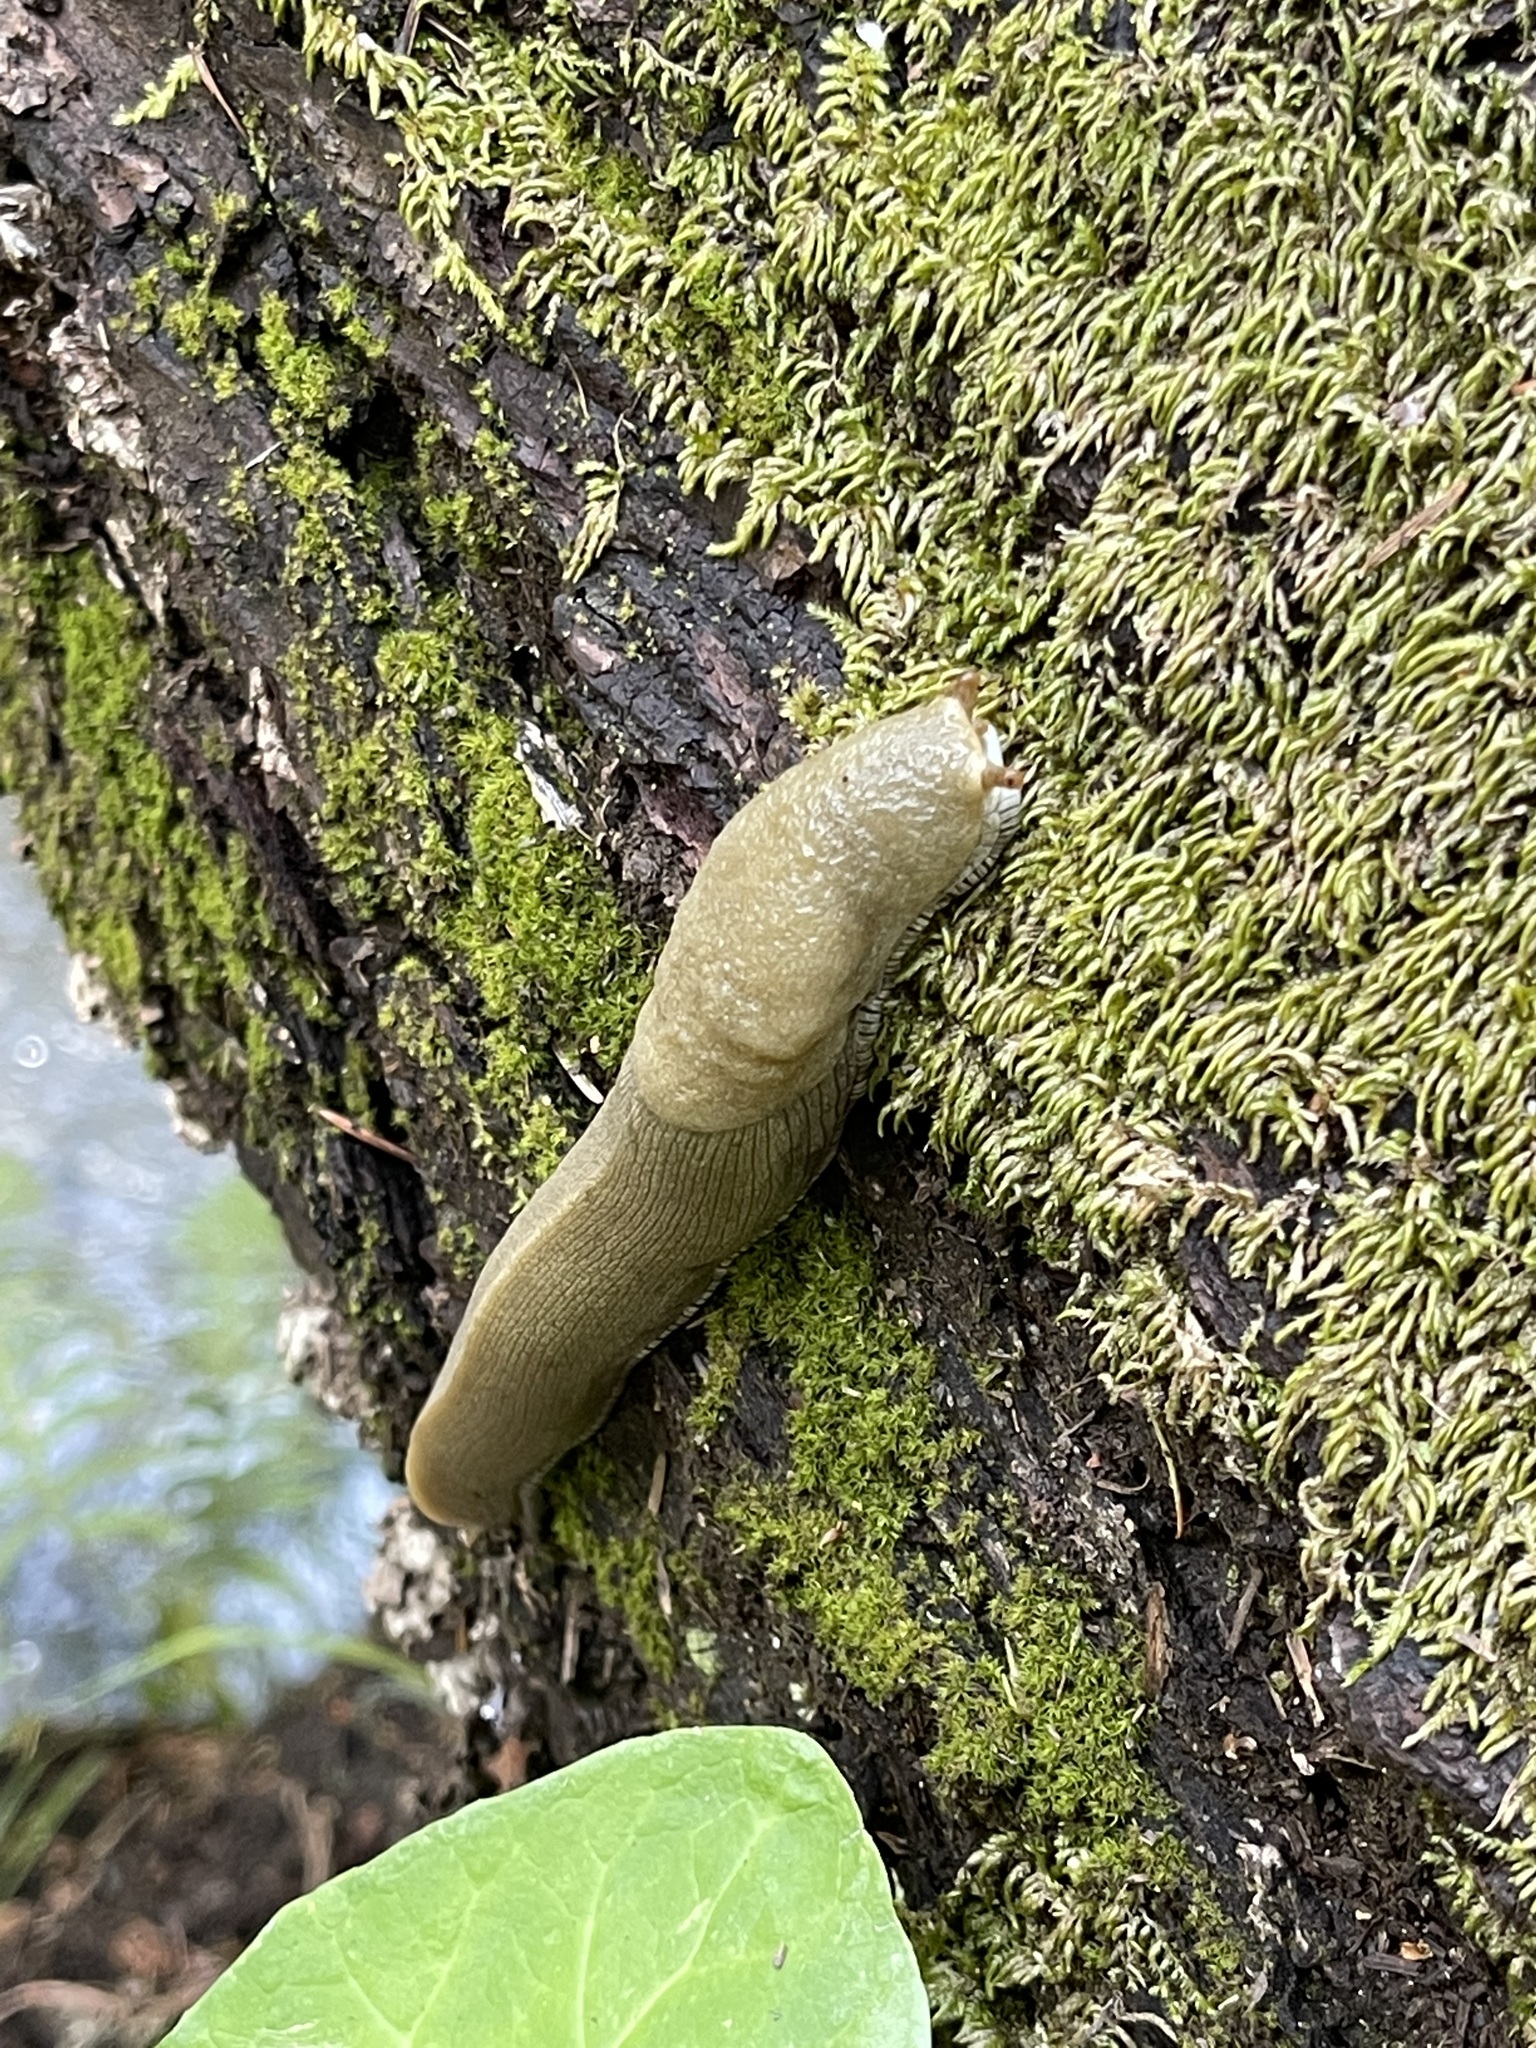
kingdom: Animalia
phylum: Mollusca
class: Gastropoda
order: Stylommatophora
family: Ariolimacidae
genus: Ariolimax
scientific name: Ariolimax buttoni
